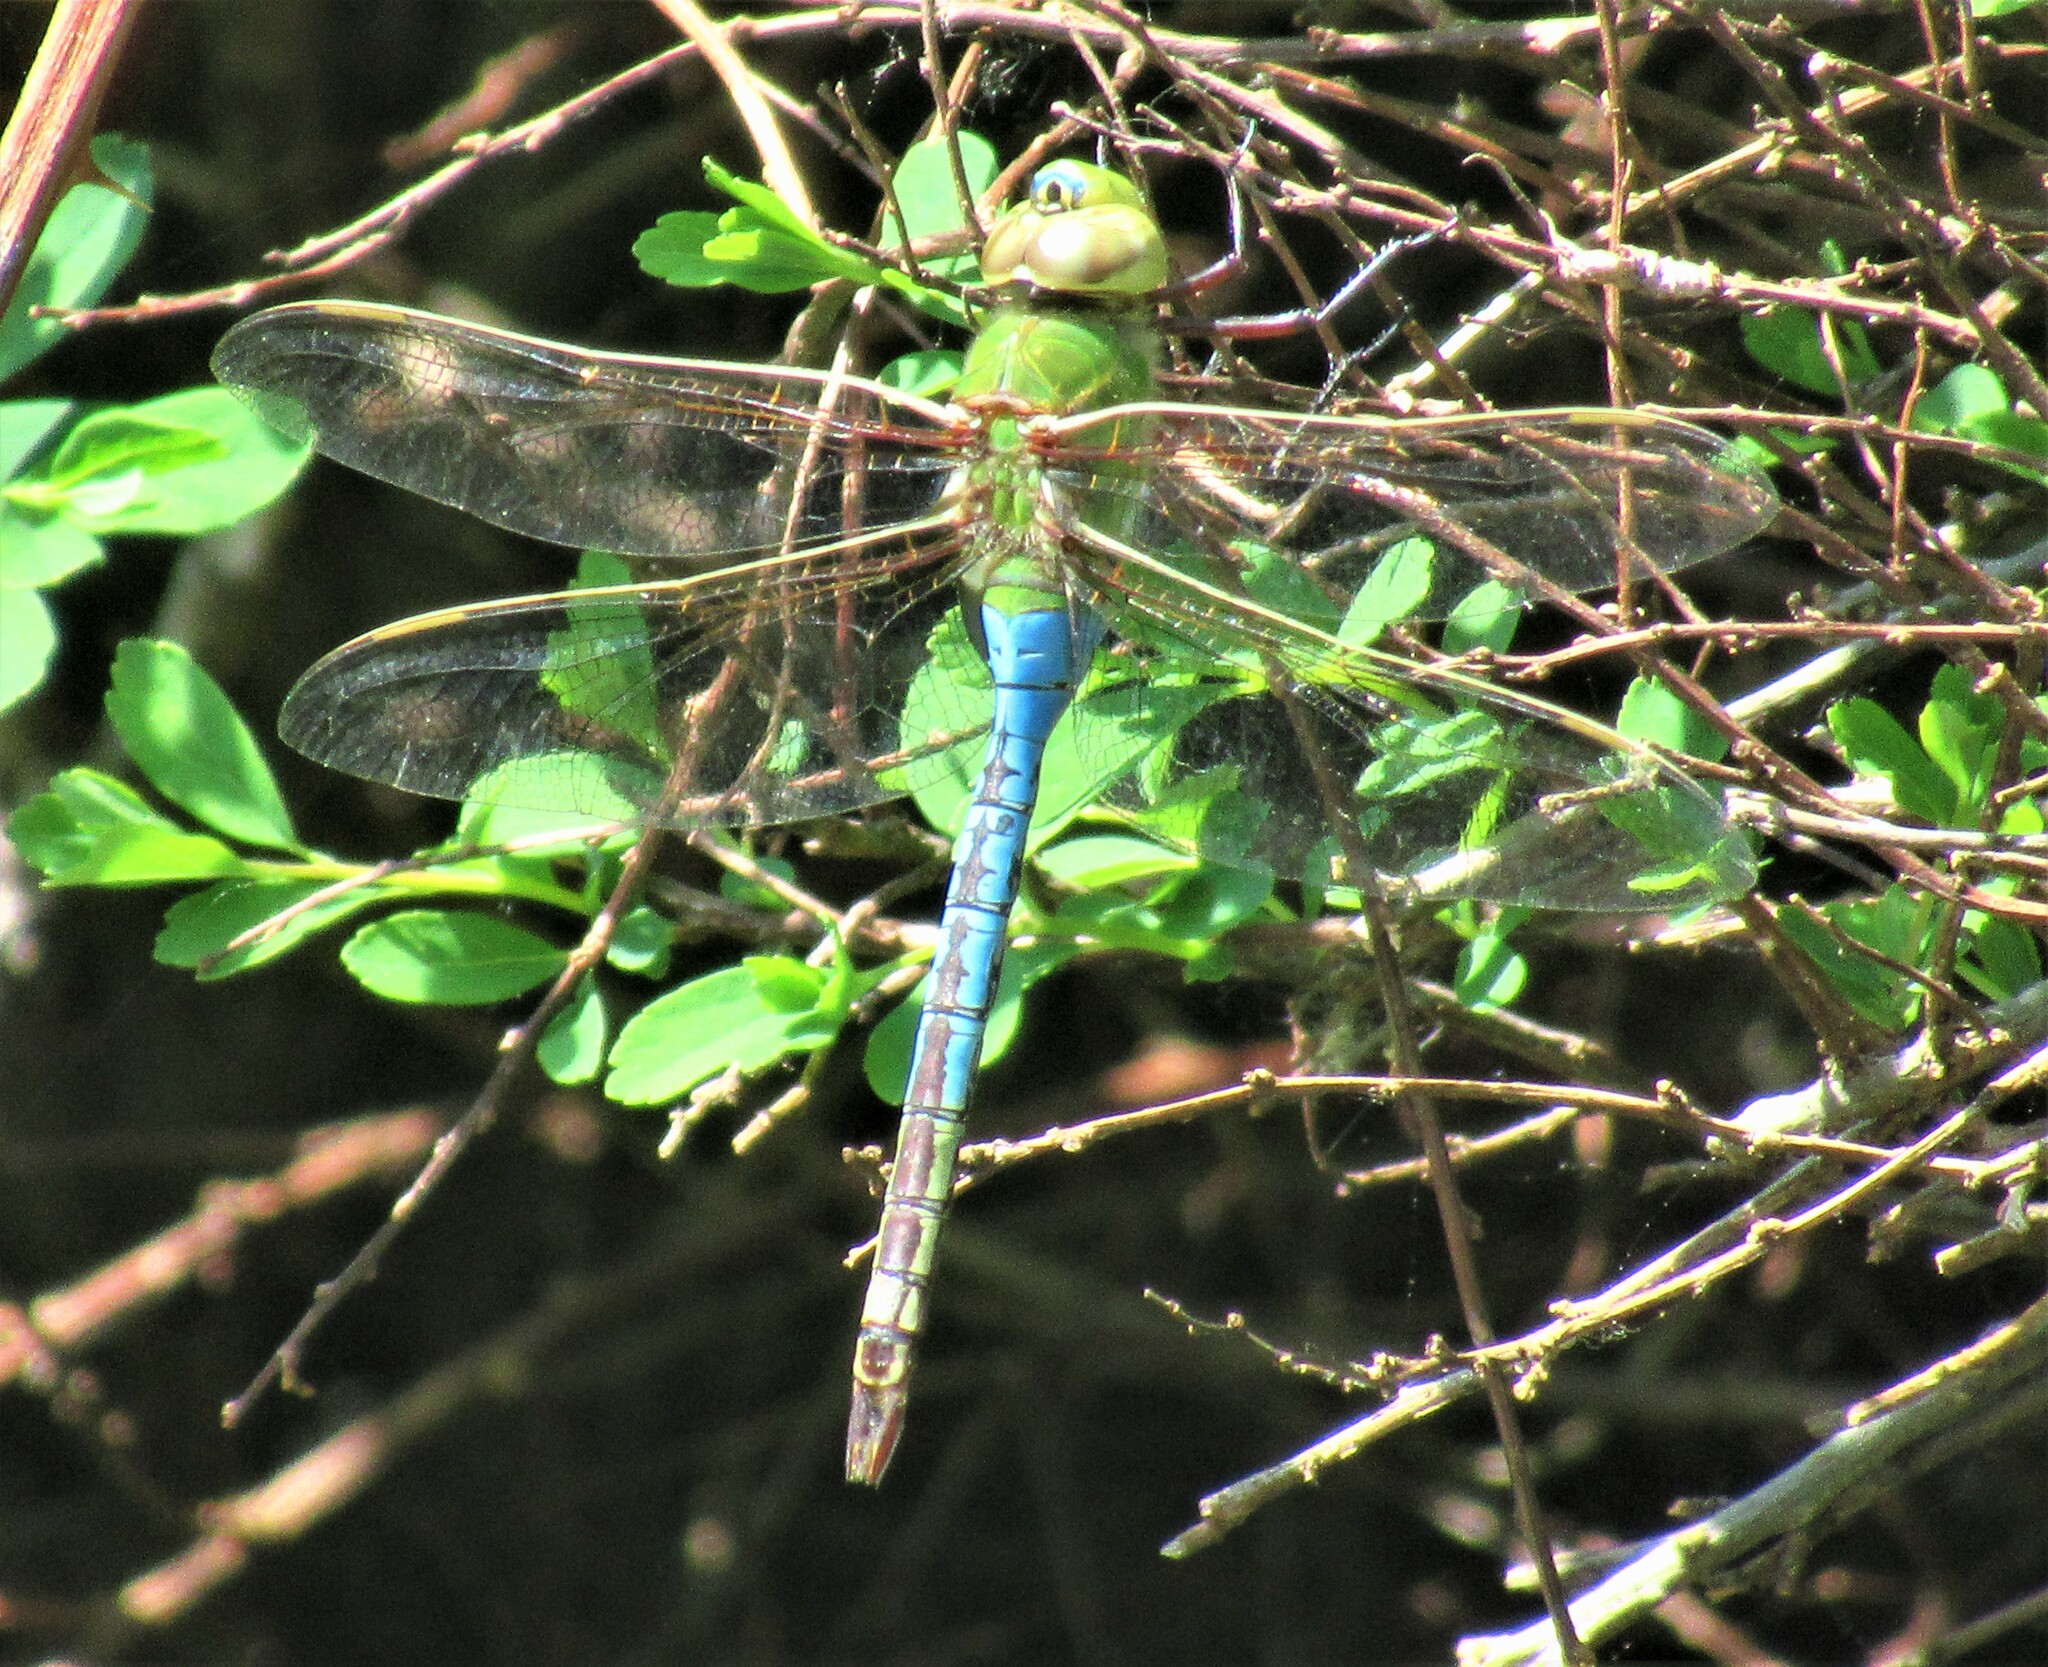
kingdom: Animalia
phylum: Arthropoda
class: Insecta
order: Odonata
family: Aeshnidae
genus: Anax
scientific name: Anax junius
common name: Common green darner
